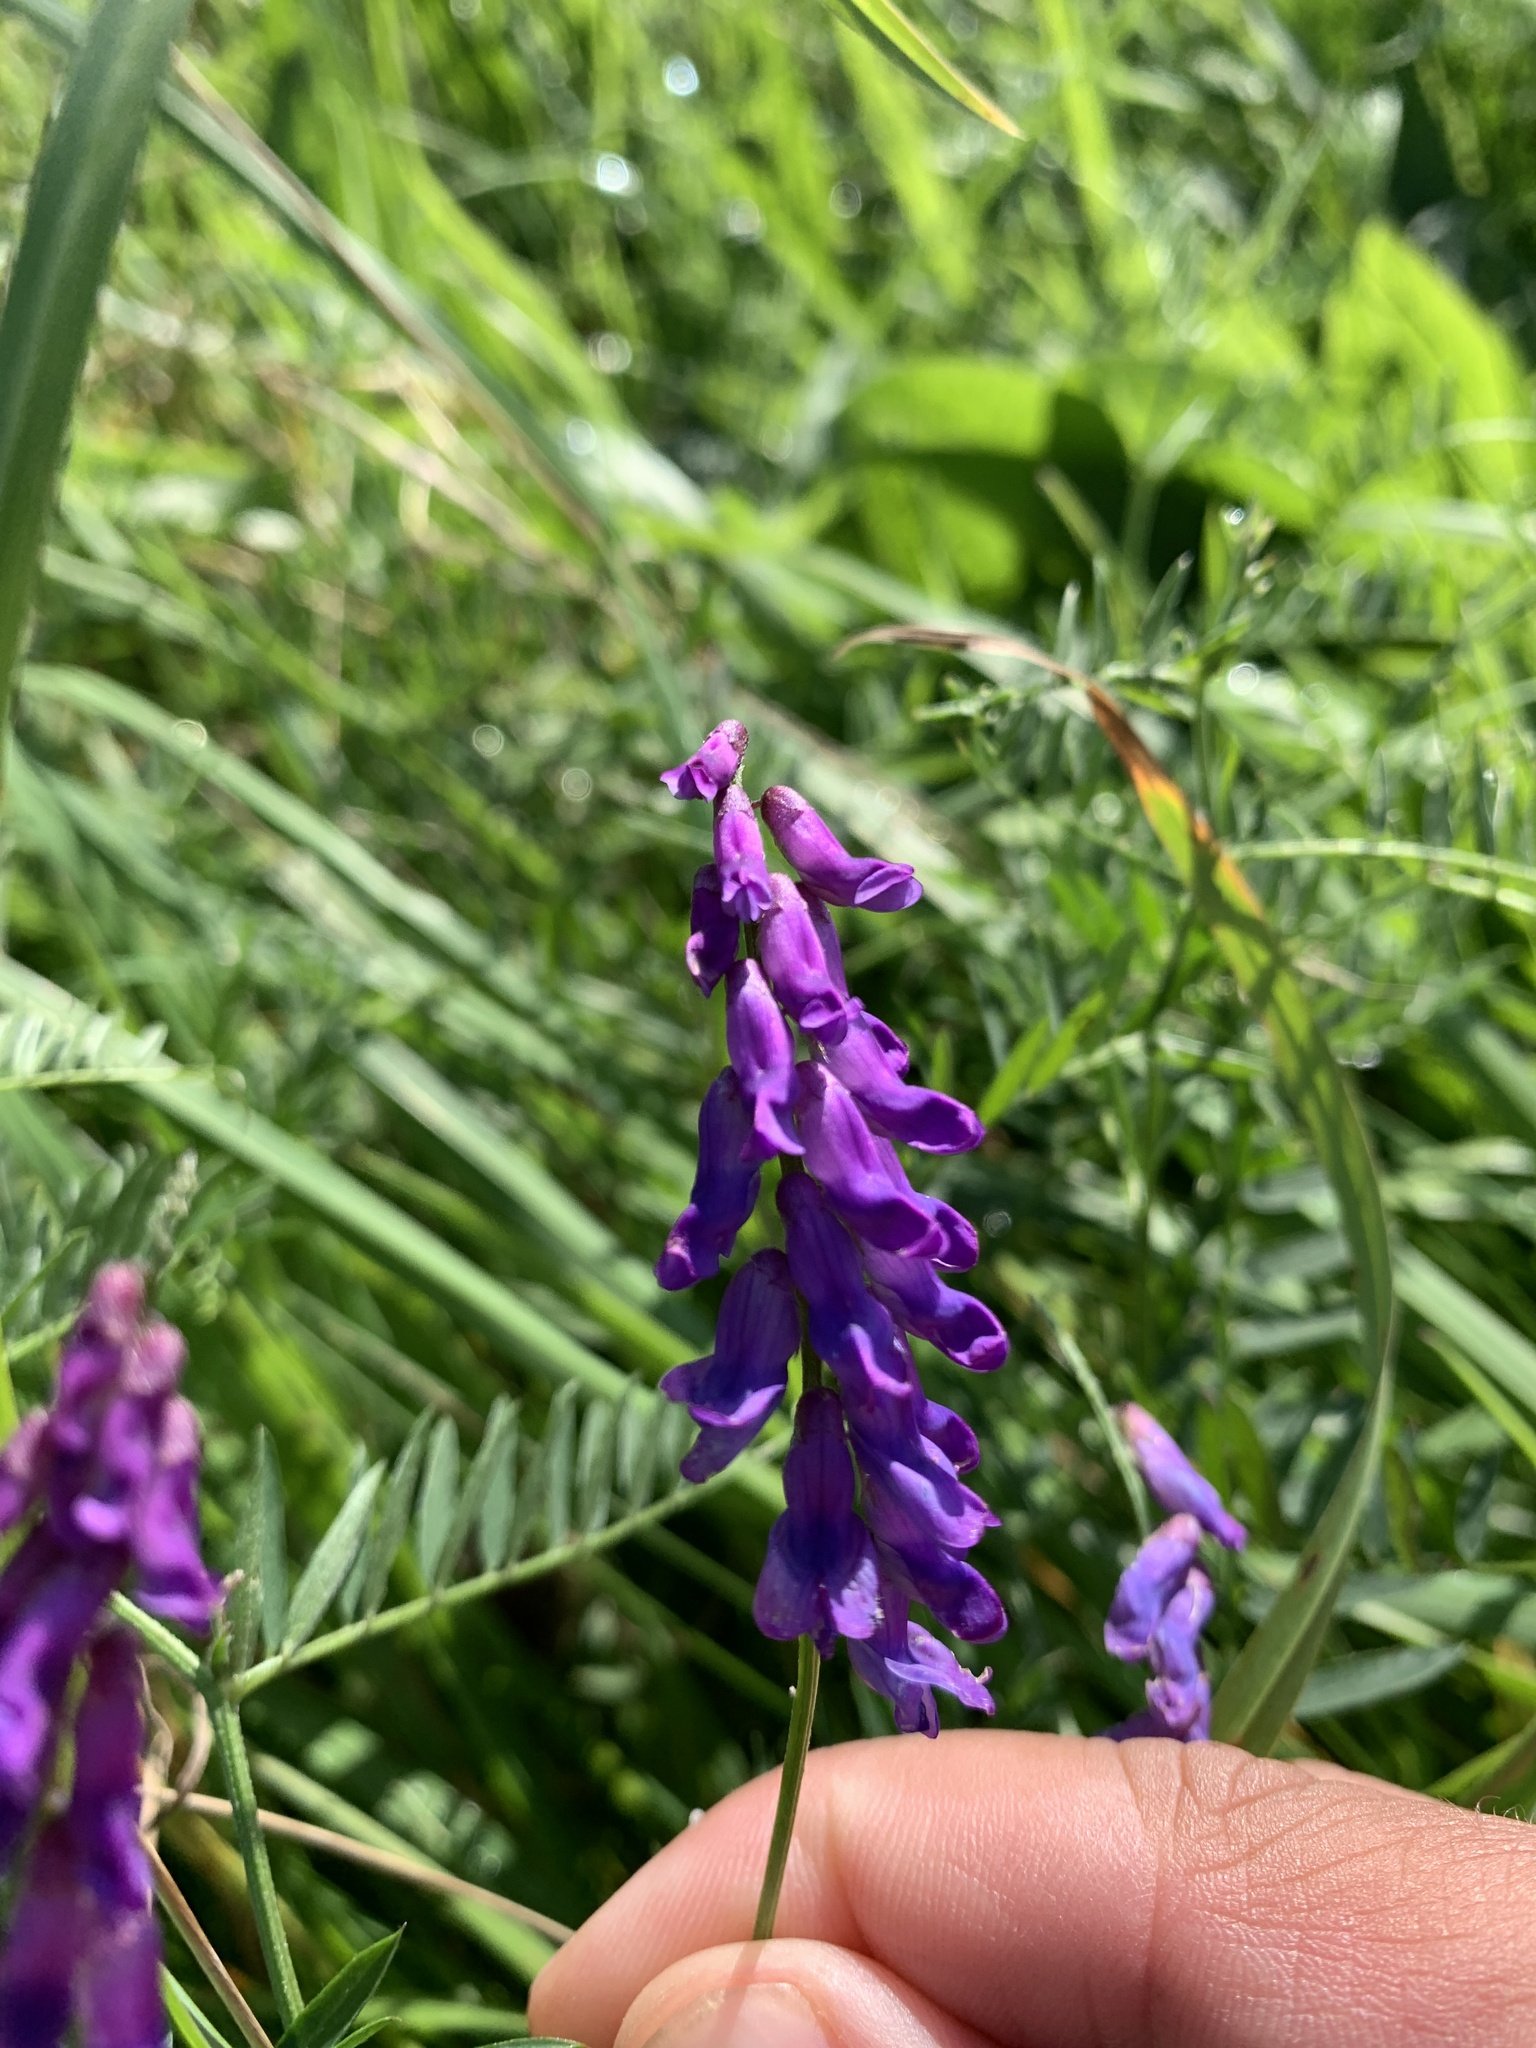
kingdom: Plantae
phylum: Tracheophyta
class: Magnoliopsida
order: Fabales
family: Fabaceae
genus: Vicia
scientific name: Vicia cracca
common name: Bird vetch
